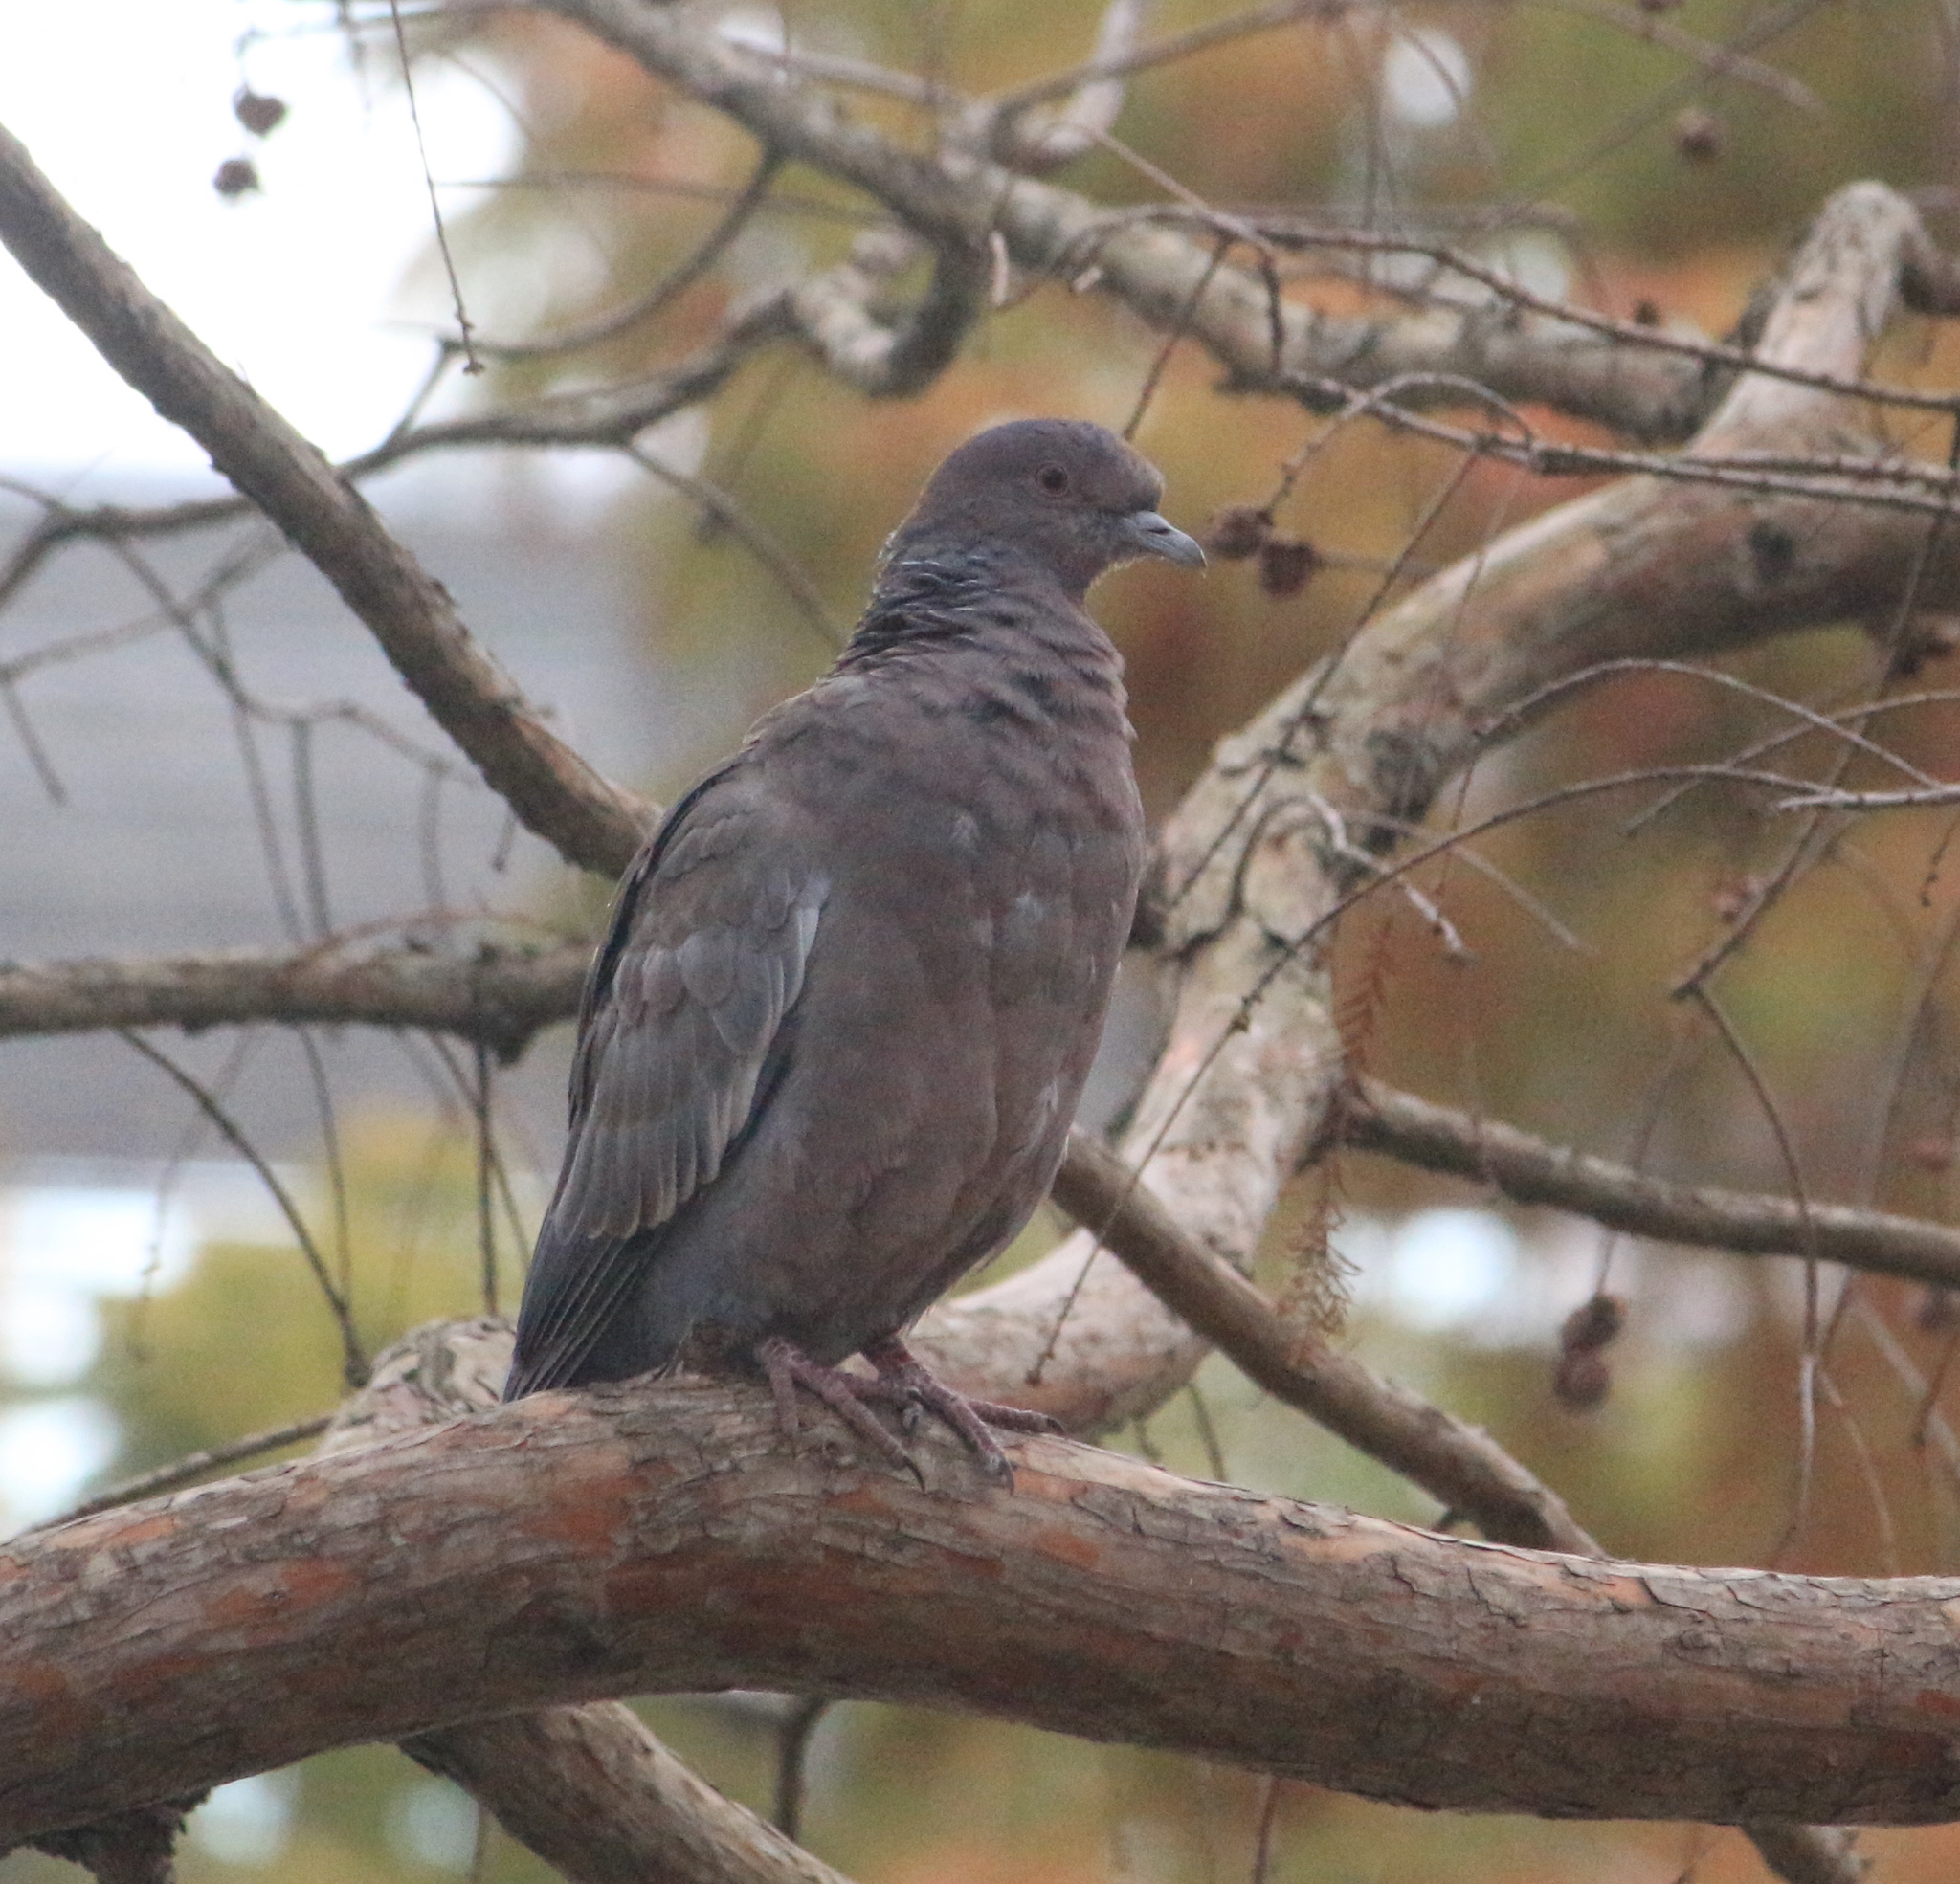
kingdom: Animalia
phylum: Chordata
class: Aves
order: Columbiformes
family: Columbidae
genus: Patagioenas
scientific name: Patagioenas picazuro
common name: Picazuro pigeon
